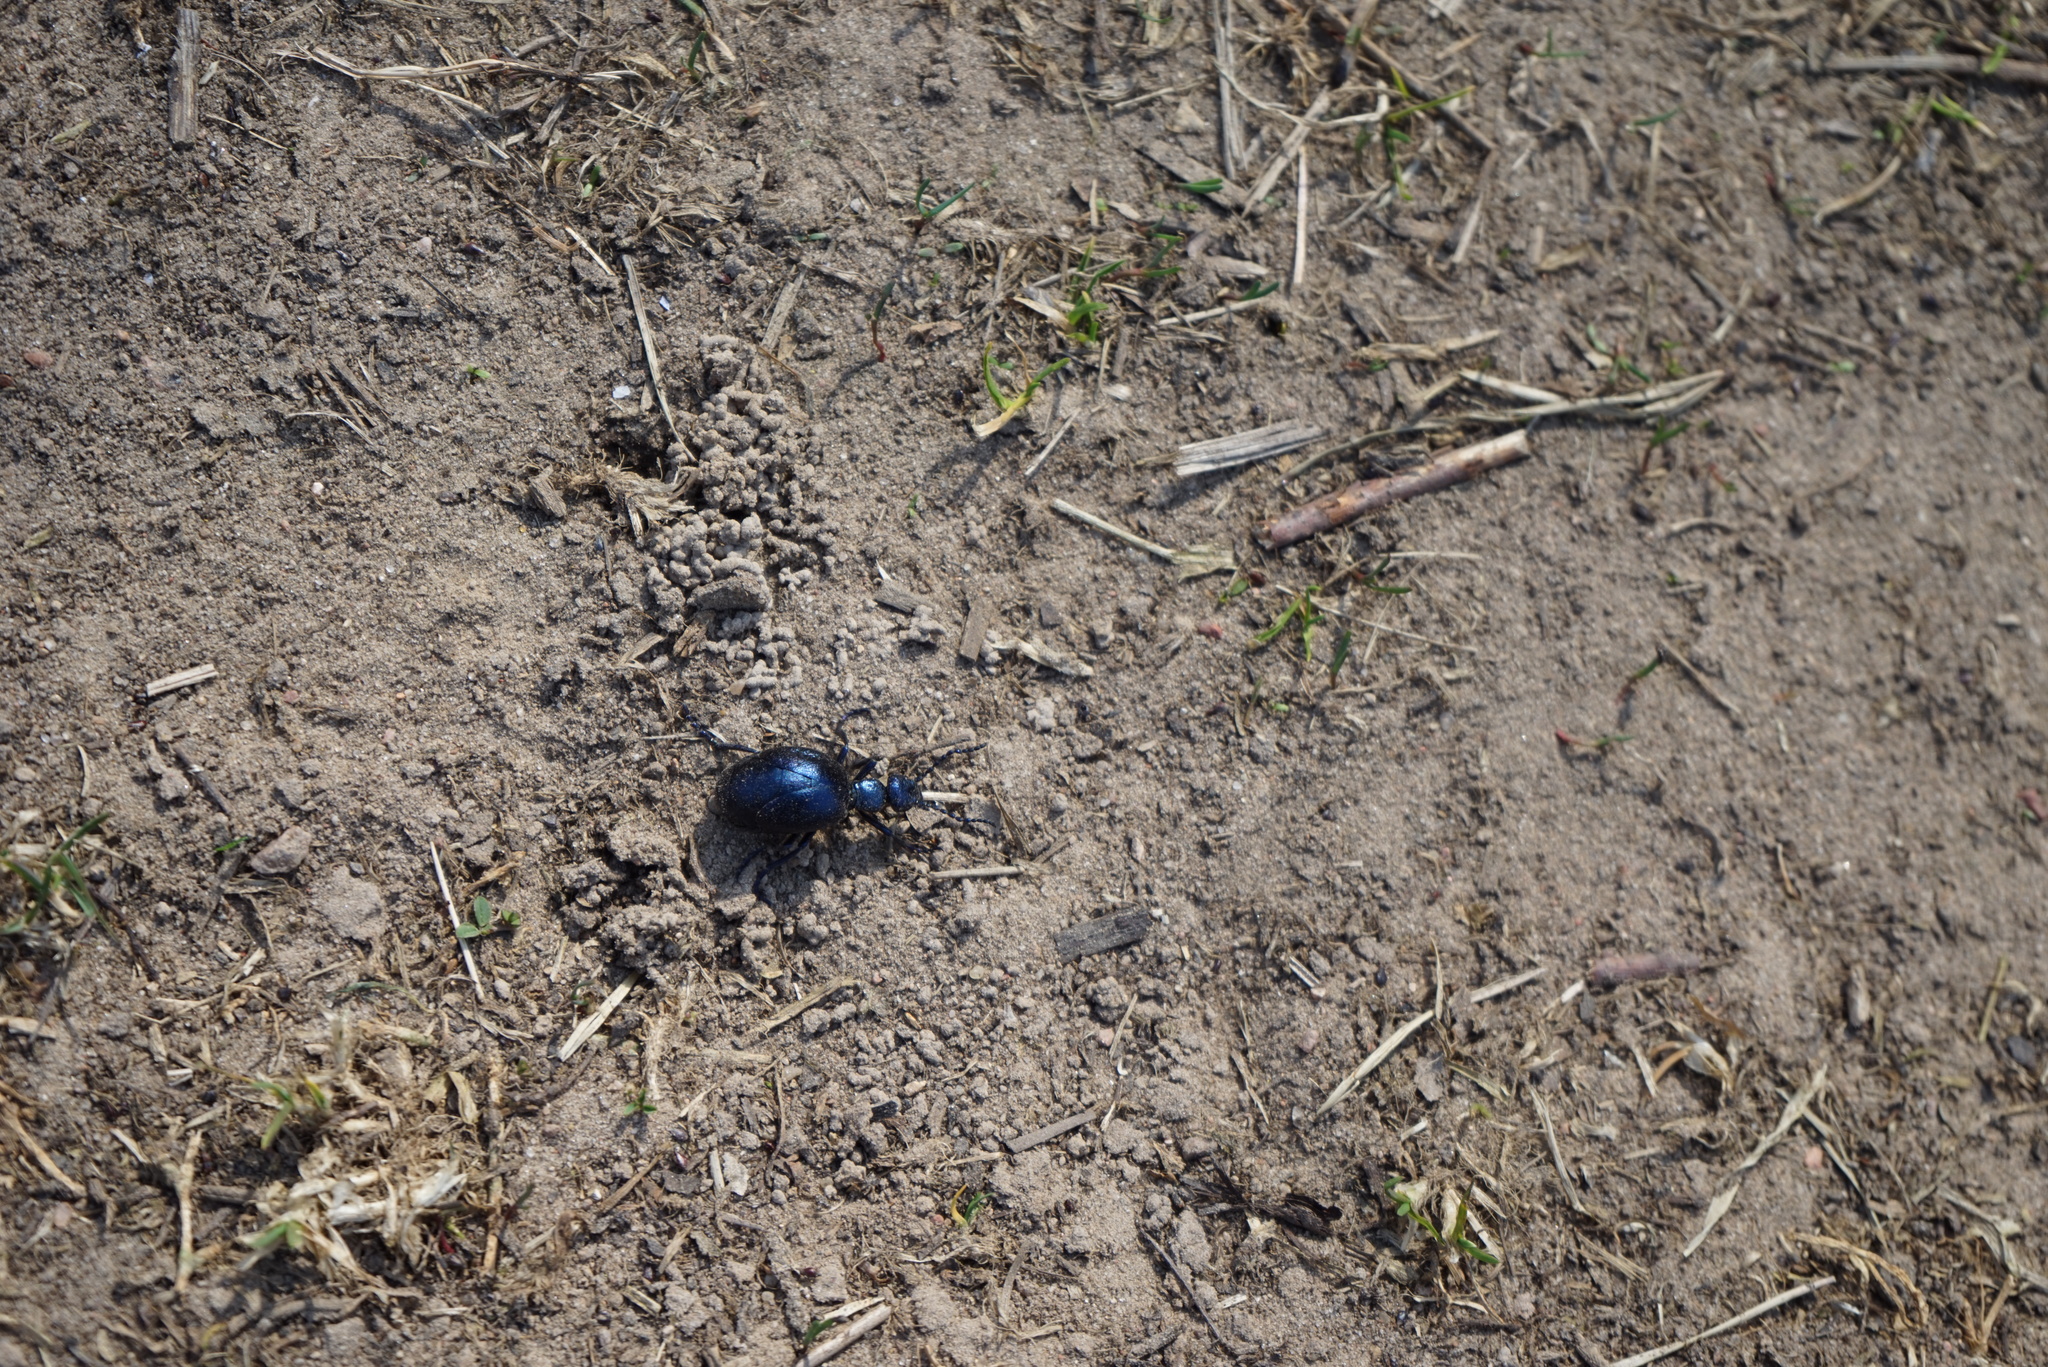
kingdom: Animalia
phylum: Arthropoda
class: Insecta
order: Coleoptera
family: Meloidae
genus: Meloe
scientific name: Meloe violaceus
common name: Violet oil-beetle
